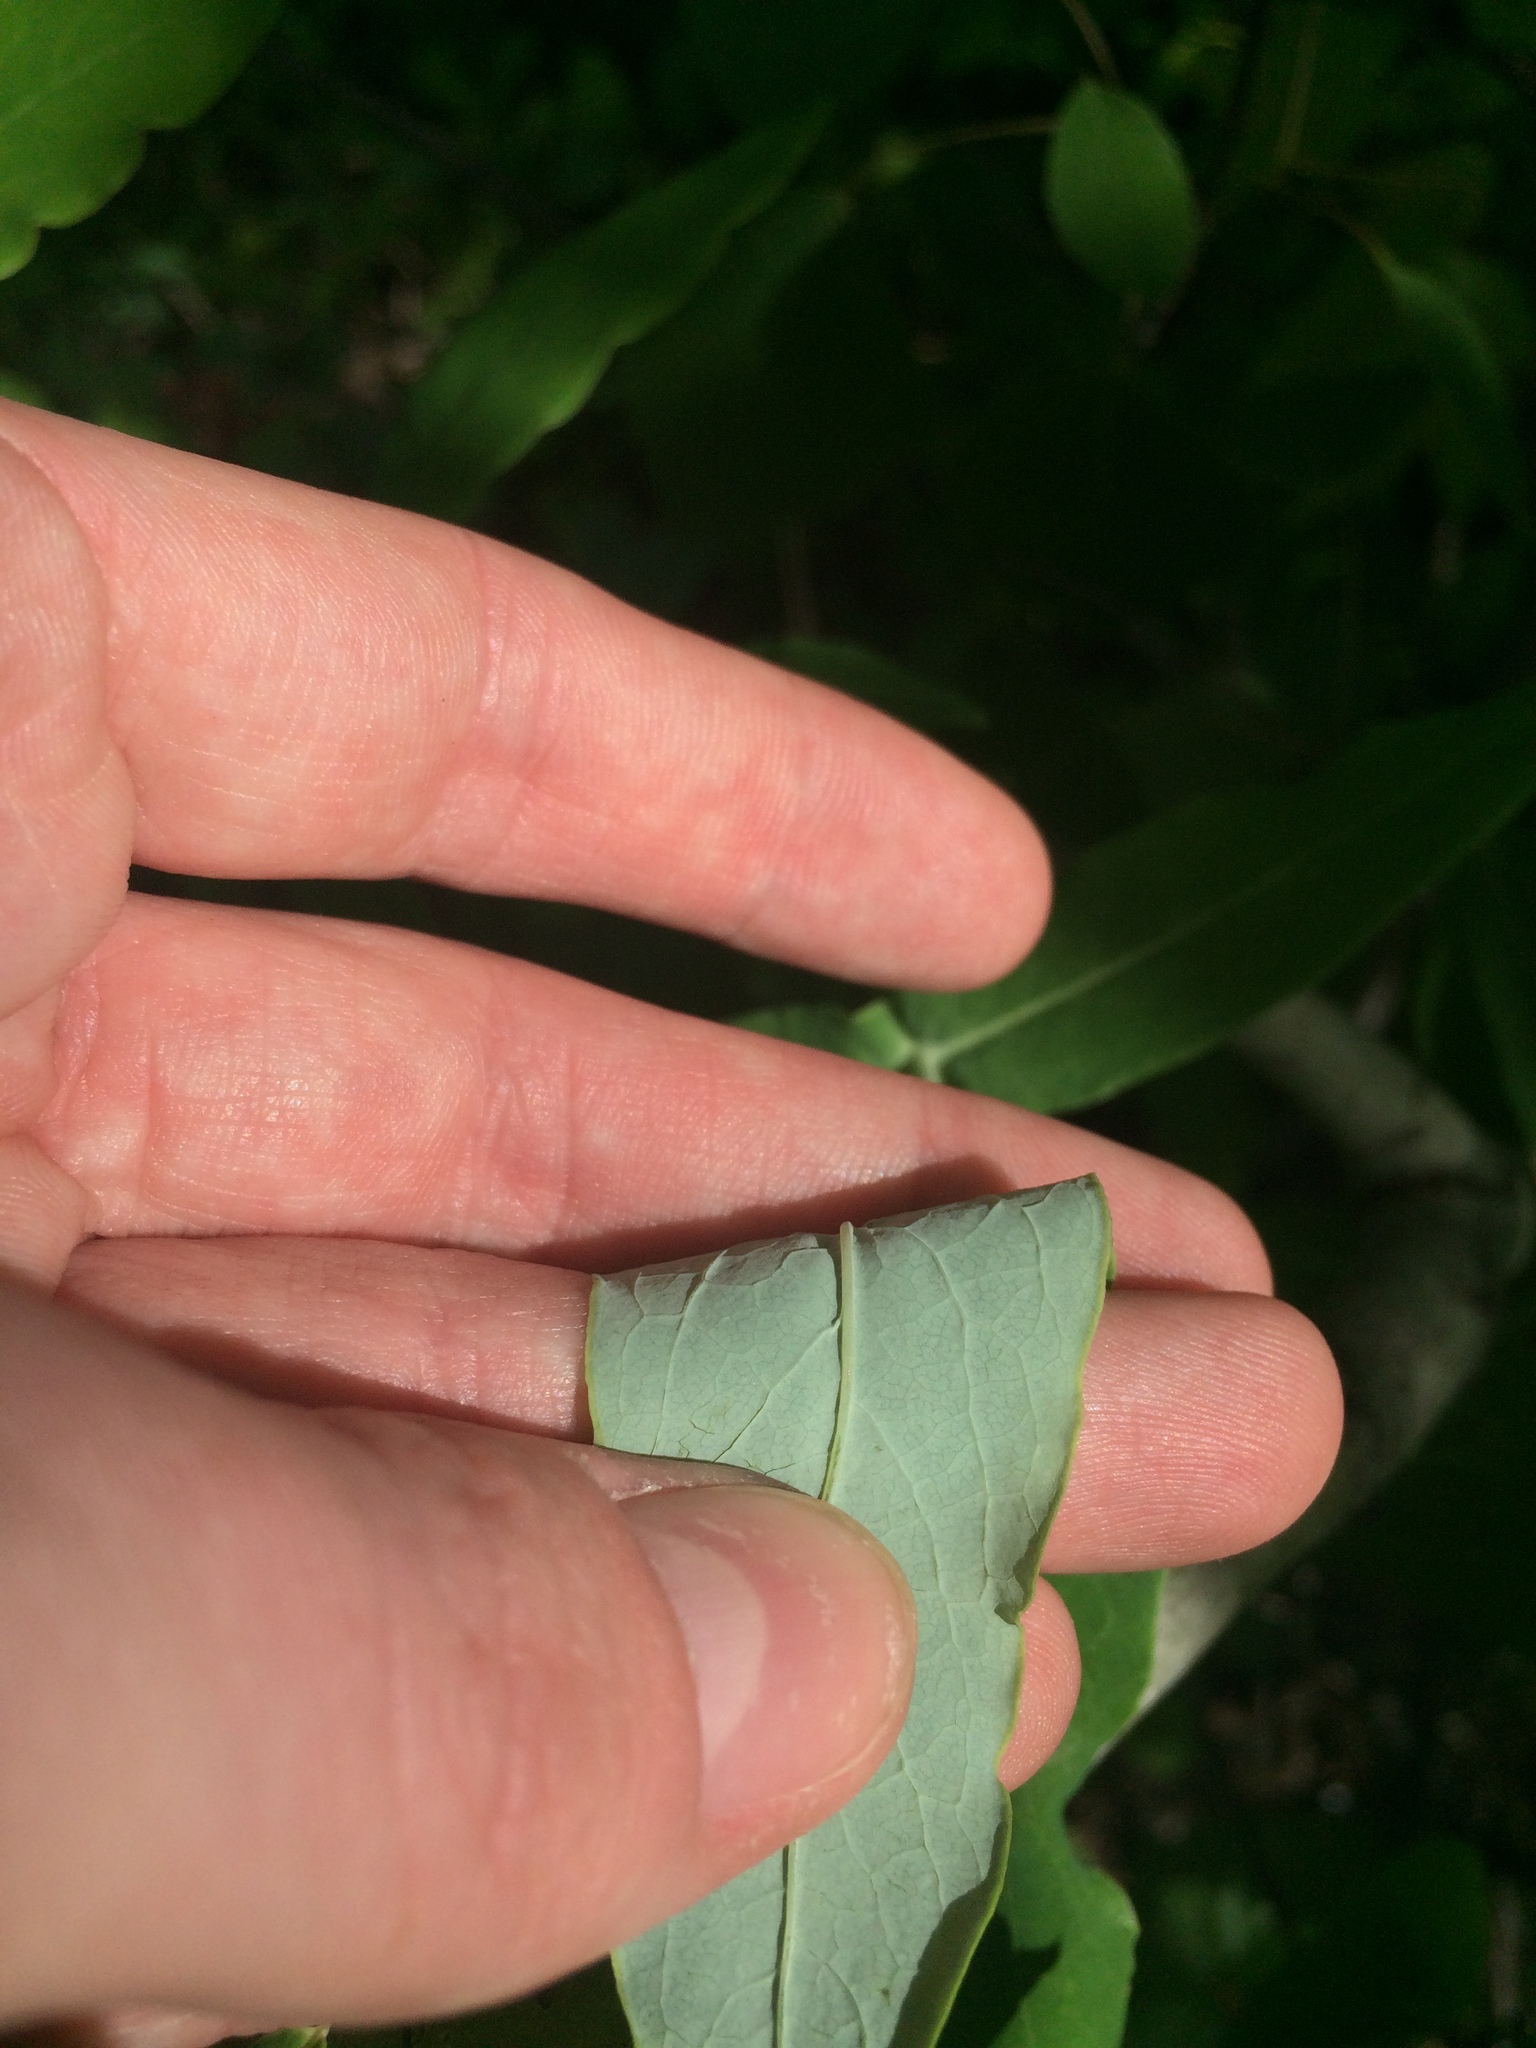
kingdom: Plantae
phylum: Tracheophyta
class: Magnoliopsida
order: Dipsacales
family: Caprifoliaceae
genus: Lonicera
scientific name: Lonicera dioica
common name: Limber honeysuckle
